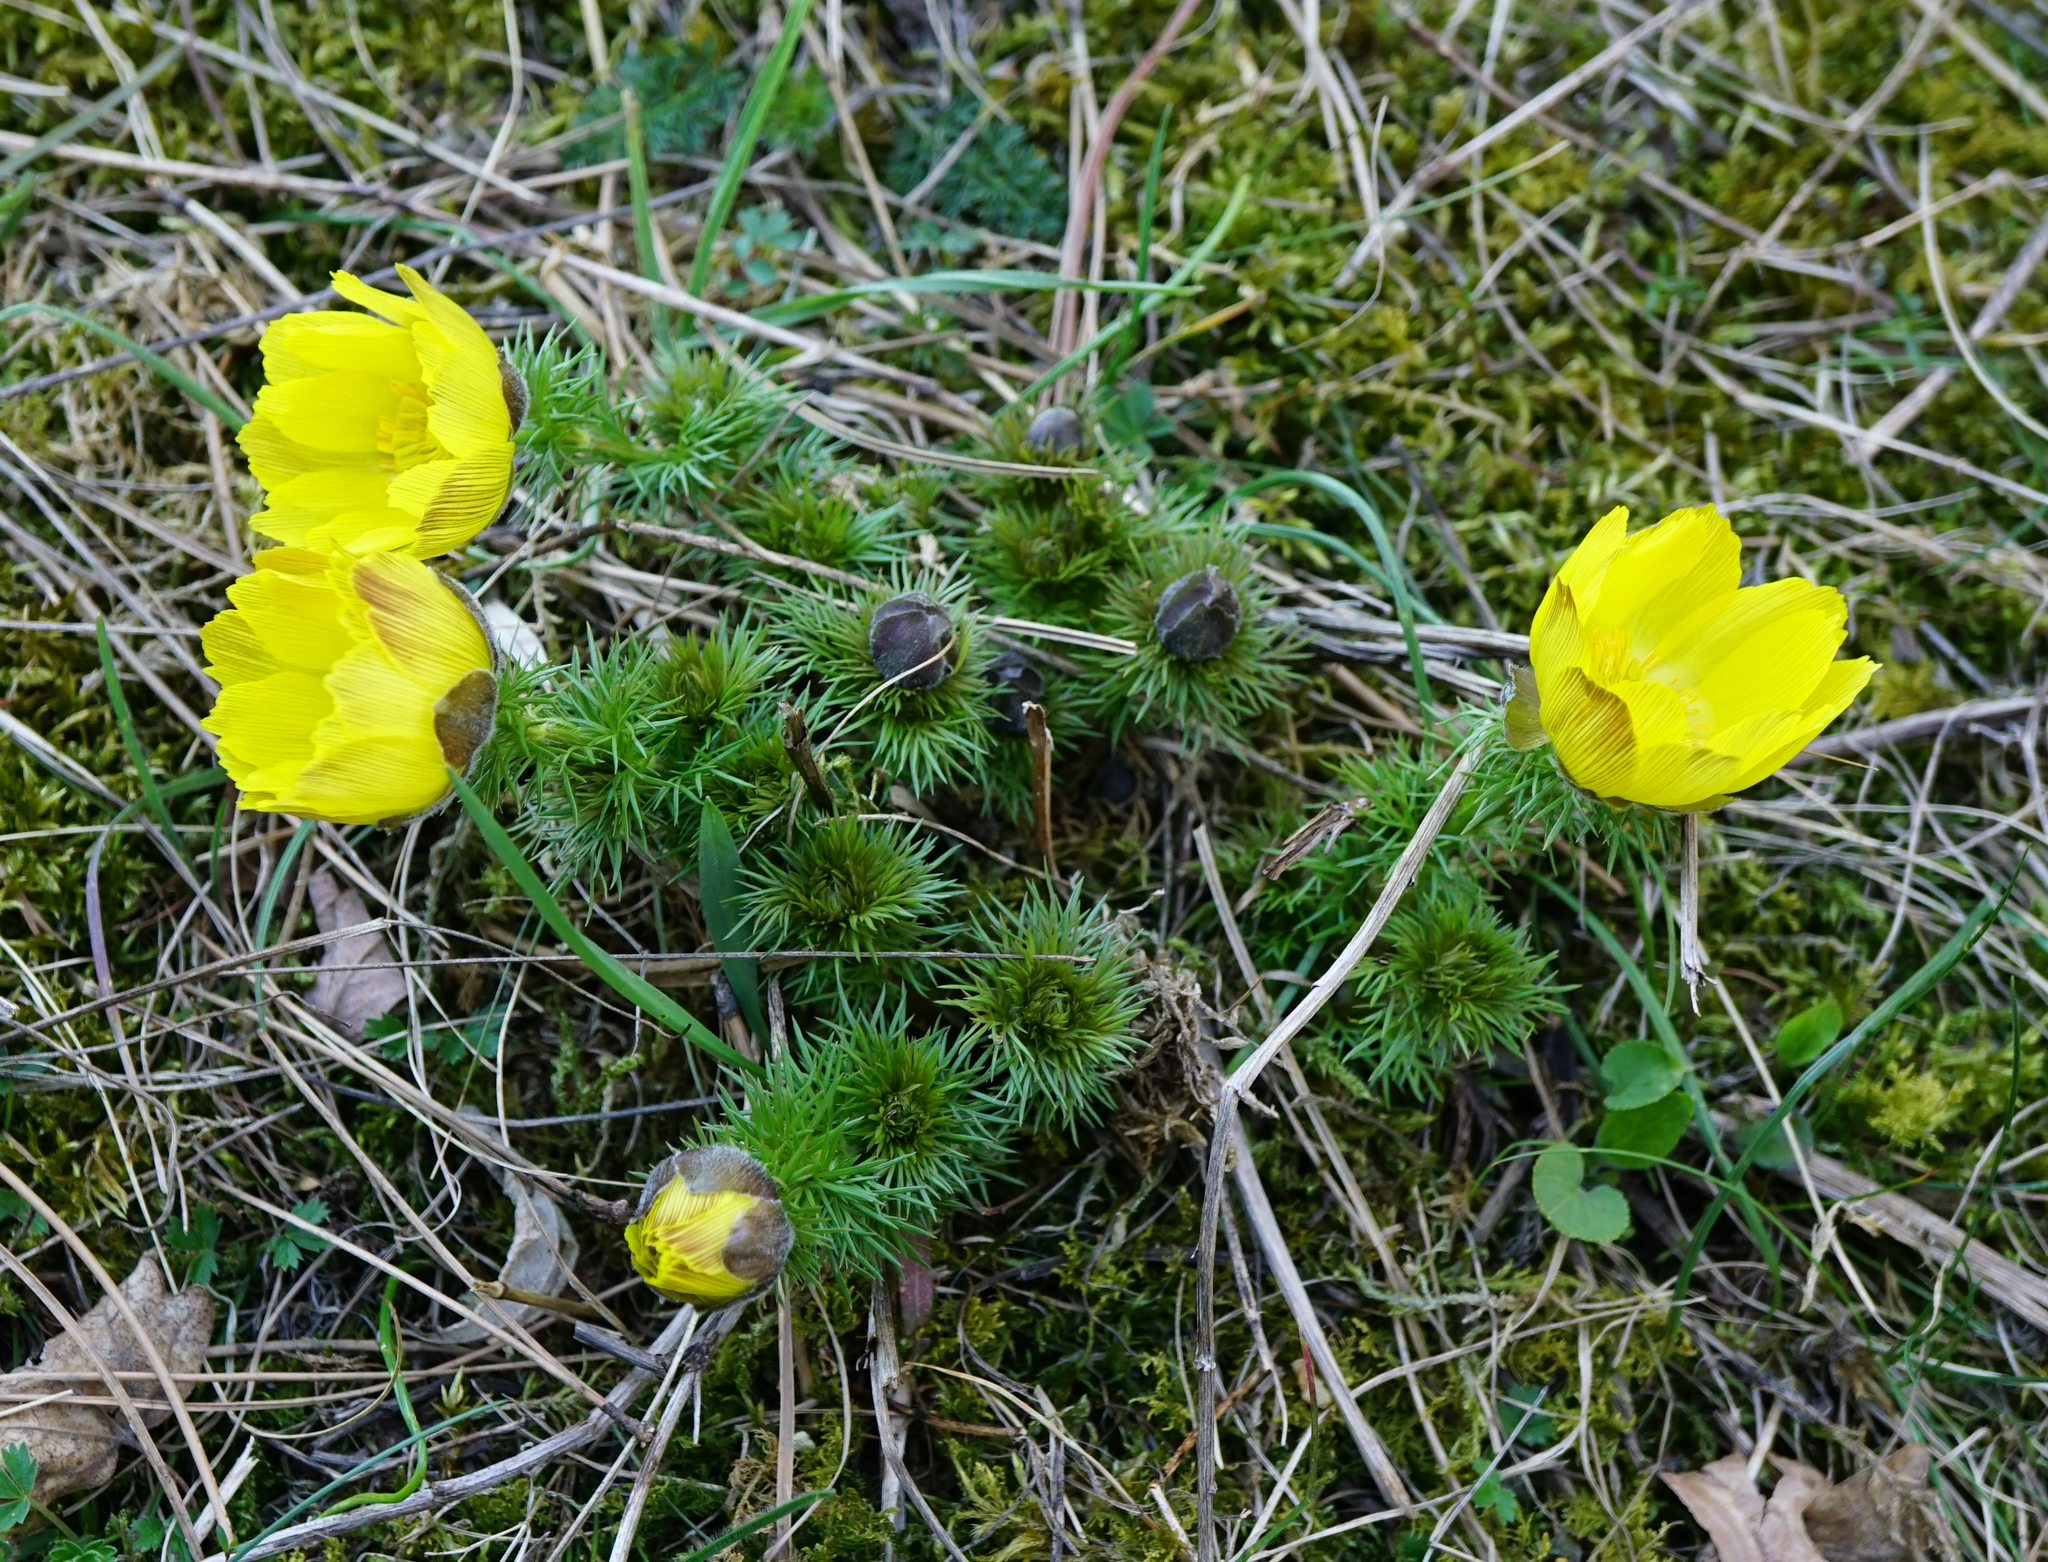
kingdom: Plantae
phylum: Tracheophyta
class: Magnoliopsida
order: Ranunculales
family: Ranunculaceae
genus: Adonis
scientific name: Adonis vernalis
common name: Yellow pheasants-eye
